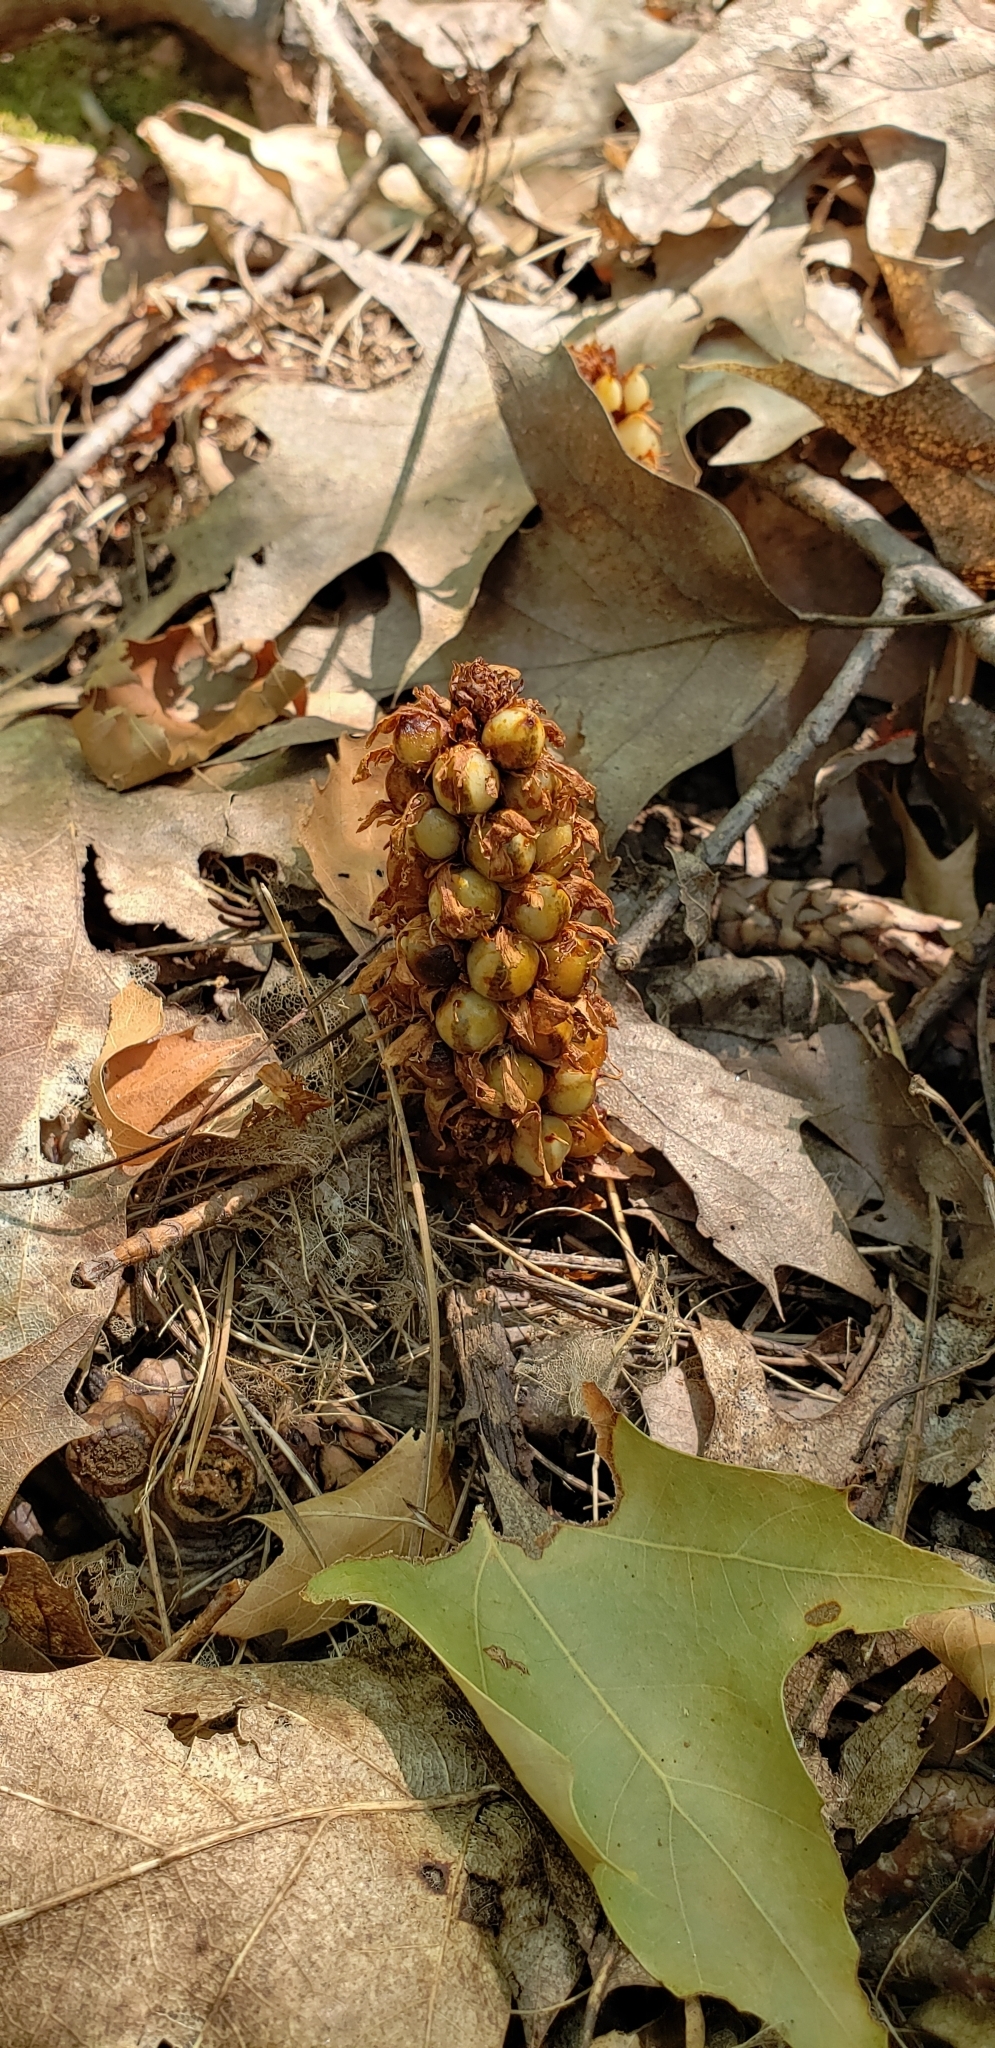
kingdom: Plantae
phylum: Tracheophyta
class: Magnoliopsida
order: Lamiales
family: Orobanchaceae
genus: Conopholis
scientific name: Conopholis americana
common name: American cancer-root
